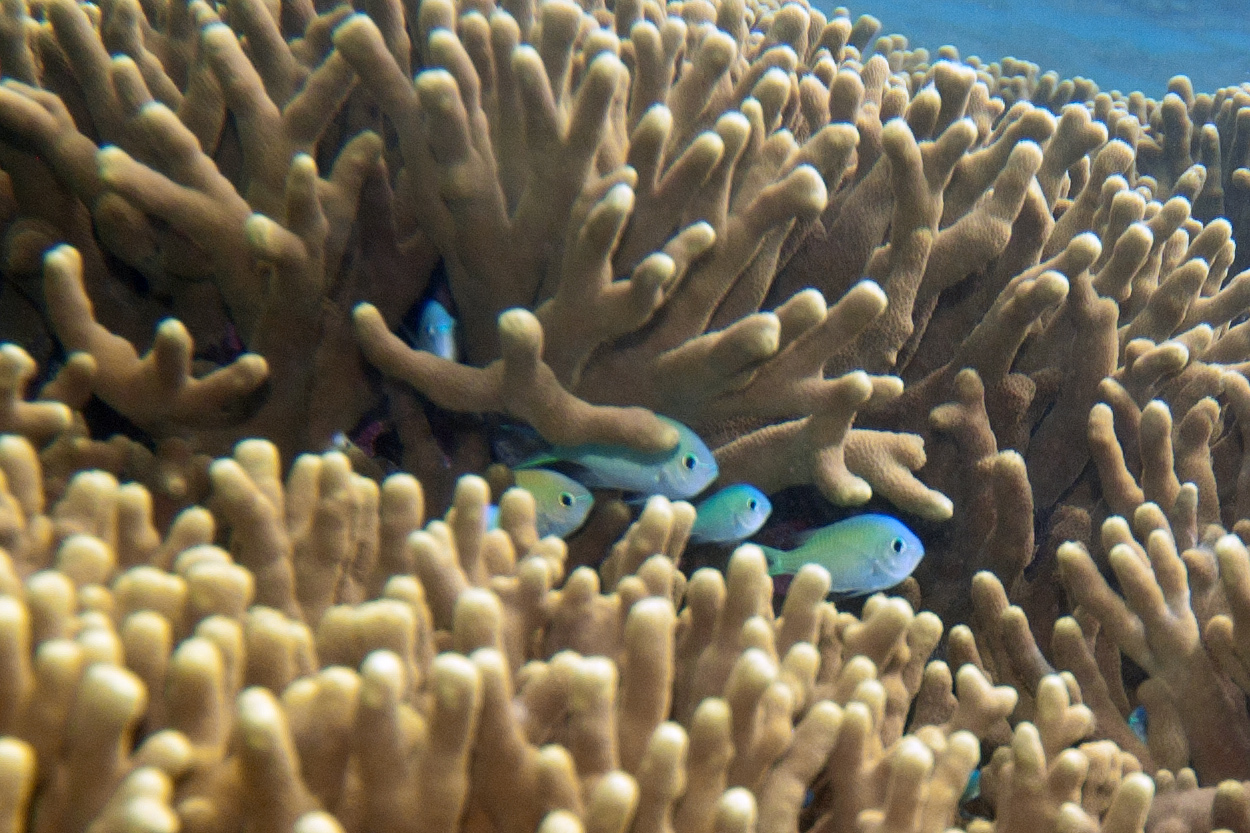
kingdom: Animalia
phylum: Chordata
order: Perciformes
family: Pomacentridae
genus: Chromis
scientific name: Chromis viridis
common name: Blue-green chromis
